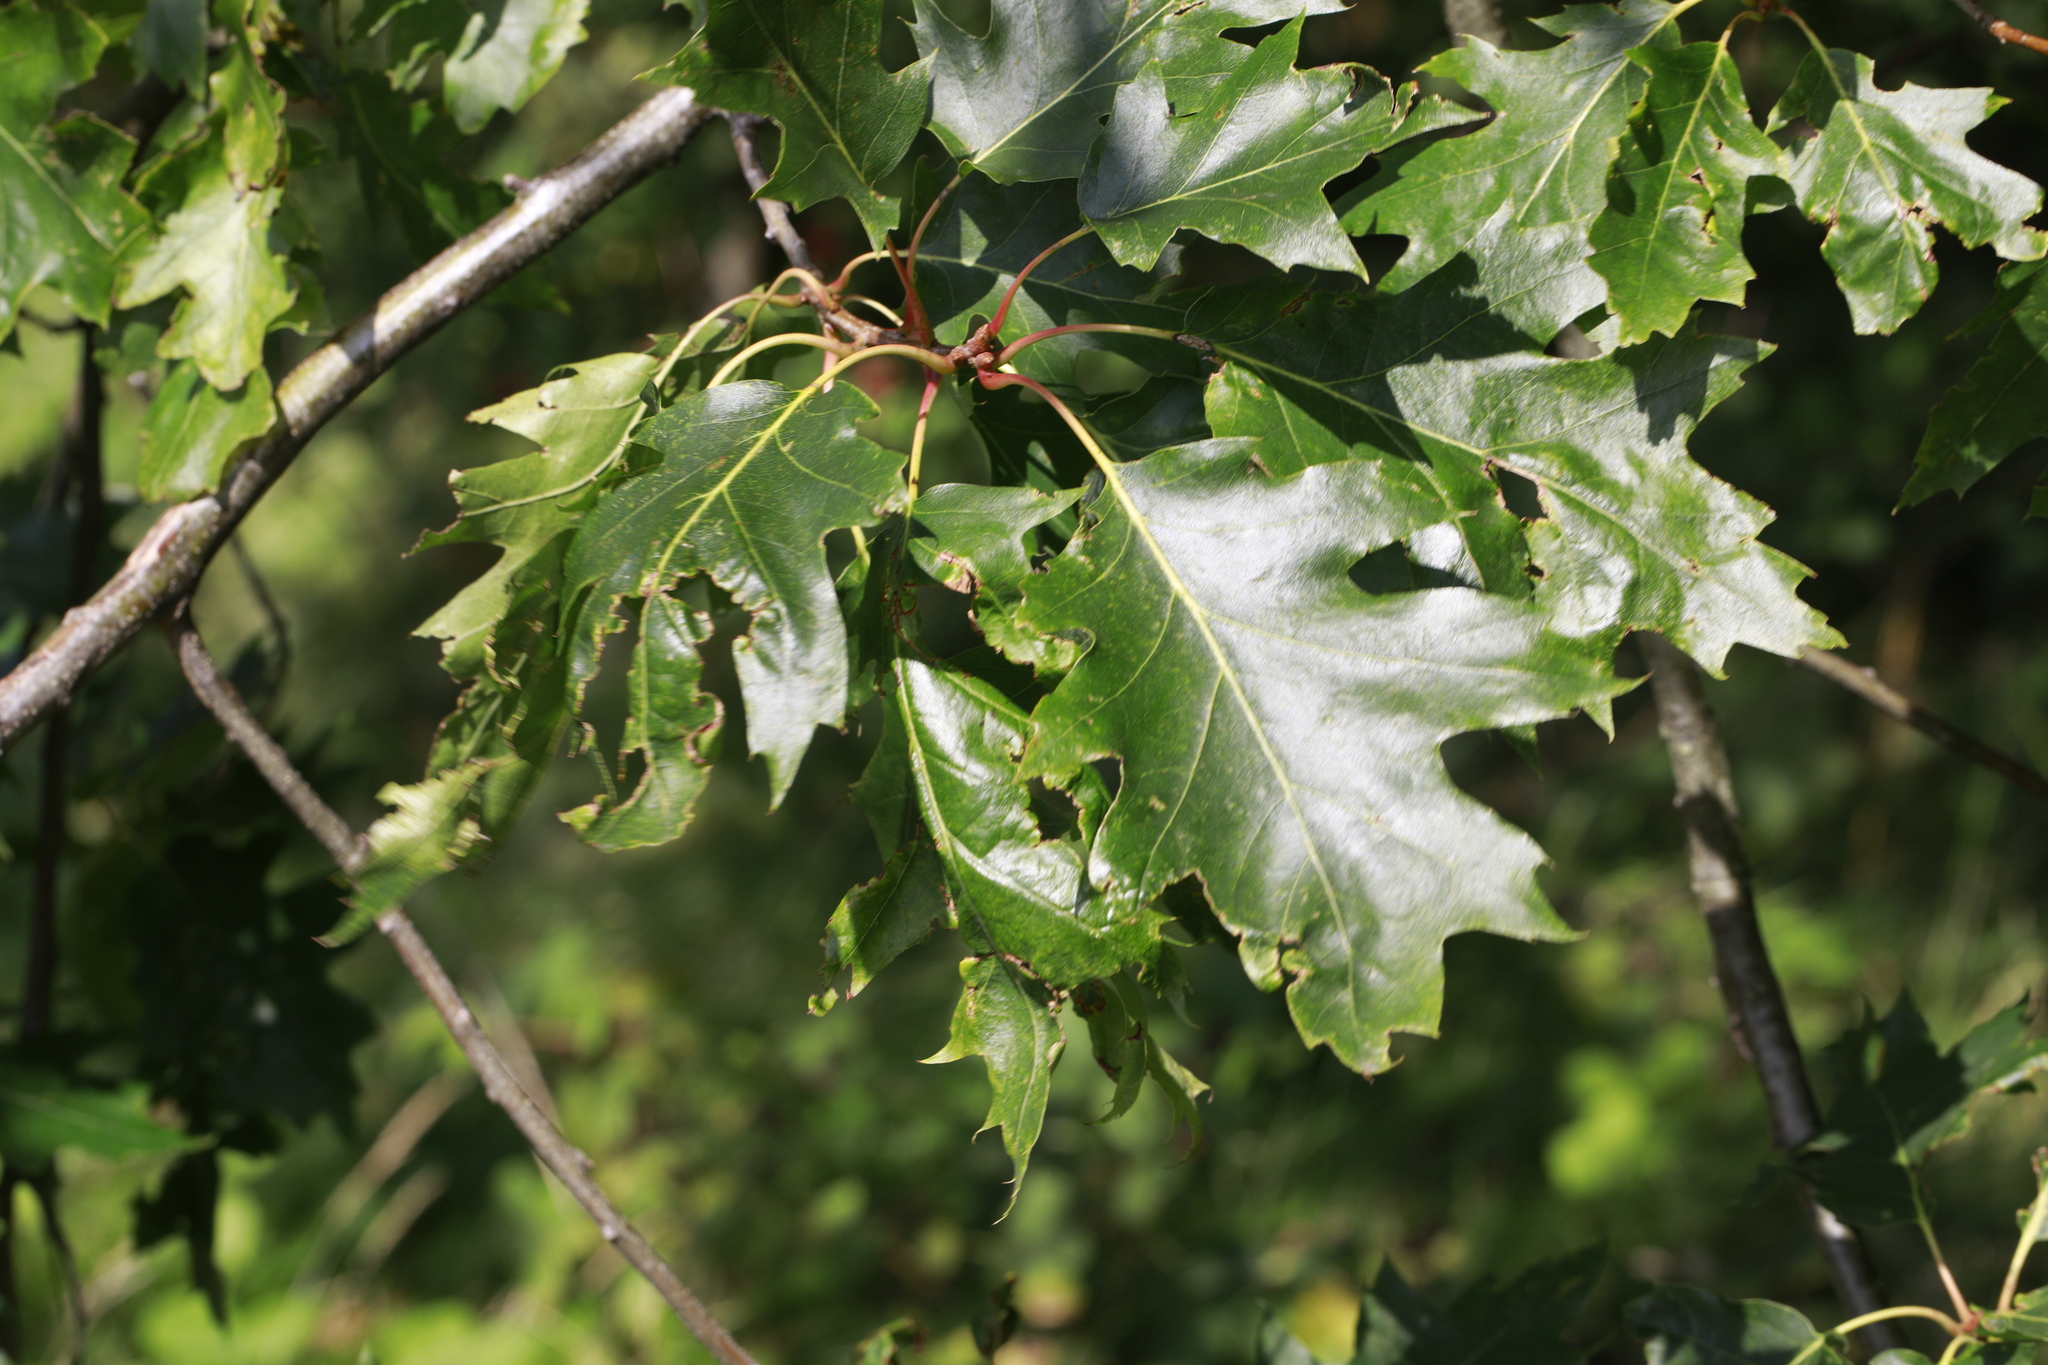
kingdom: Plantae
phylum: Tracheophyta
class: Magnoliopsida
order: Fagales
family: Fagaceae
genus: Quercus
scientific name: Quercus rubra
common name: Red oak
